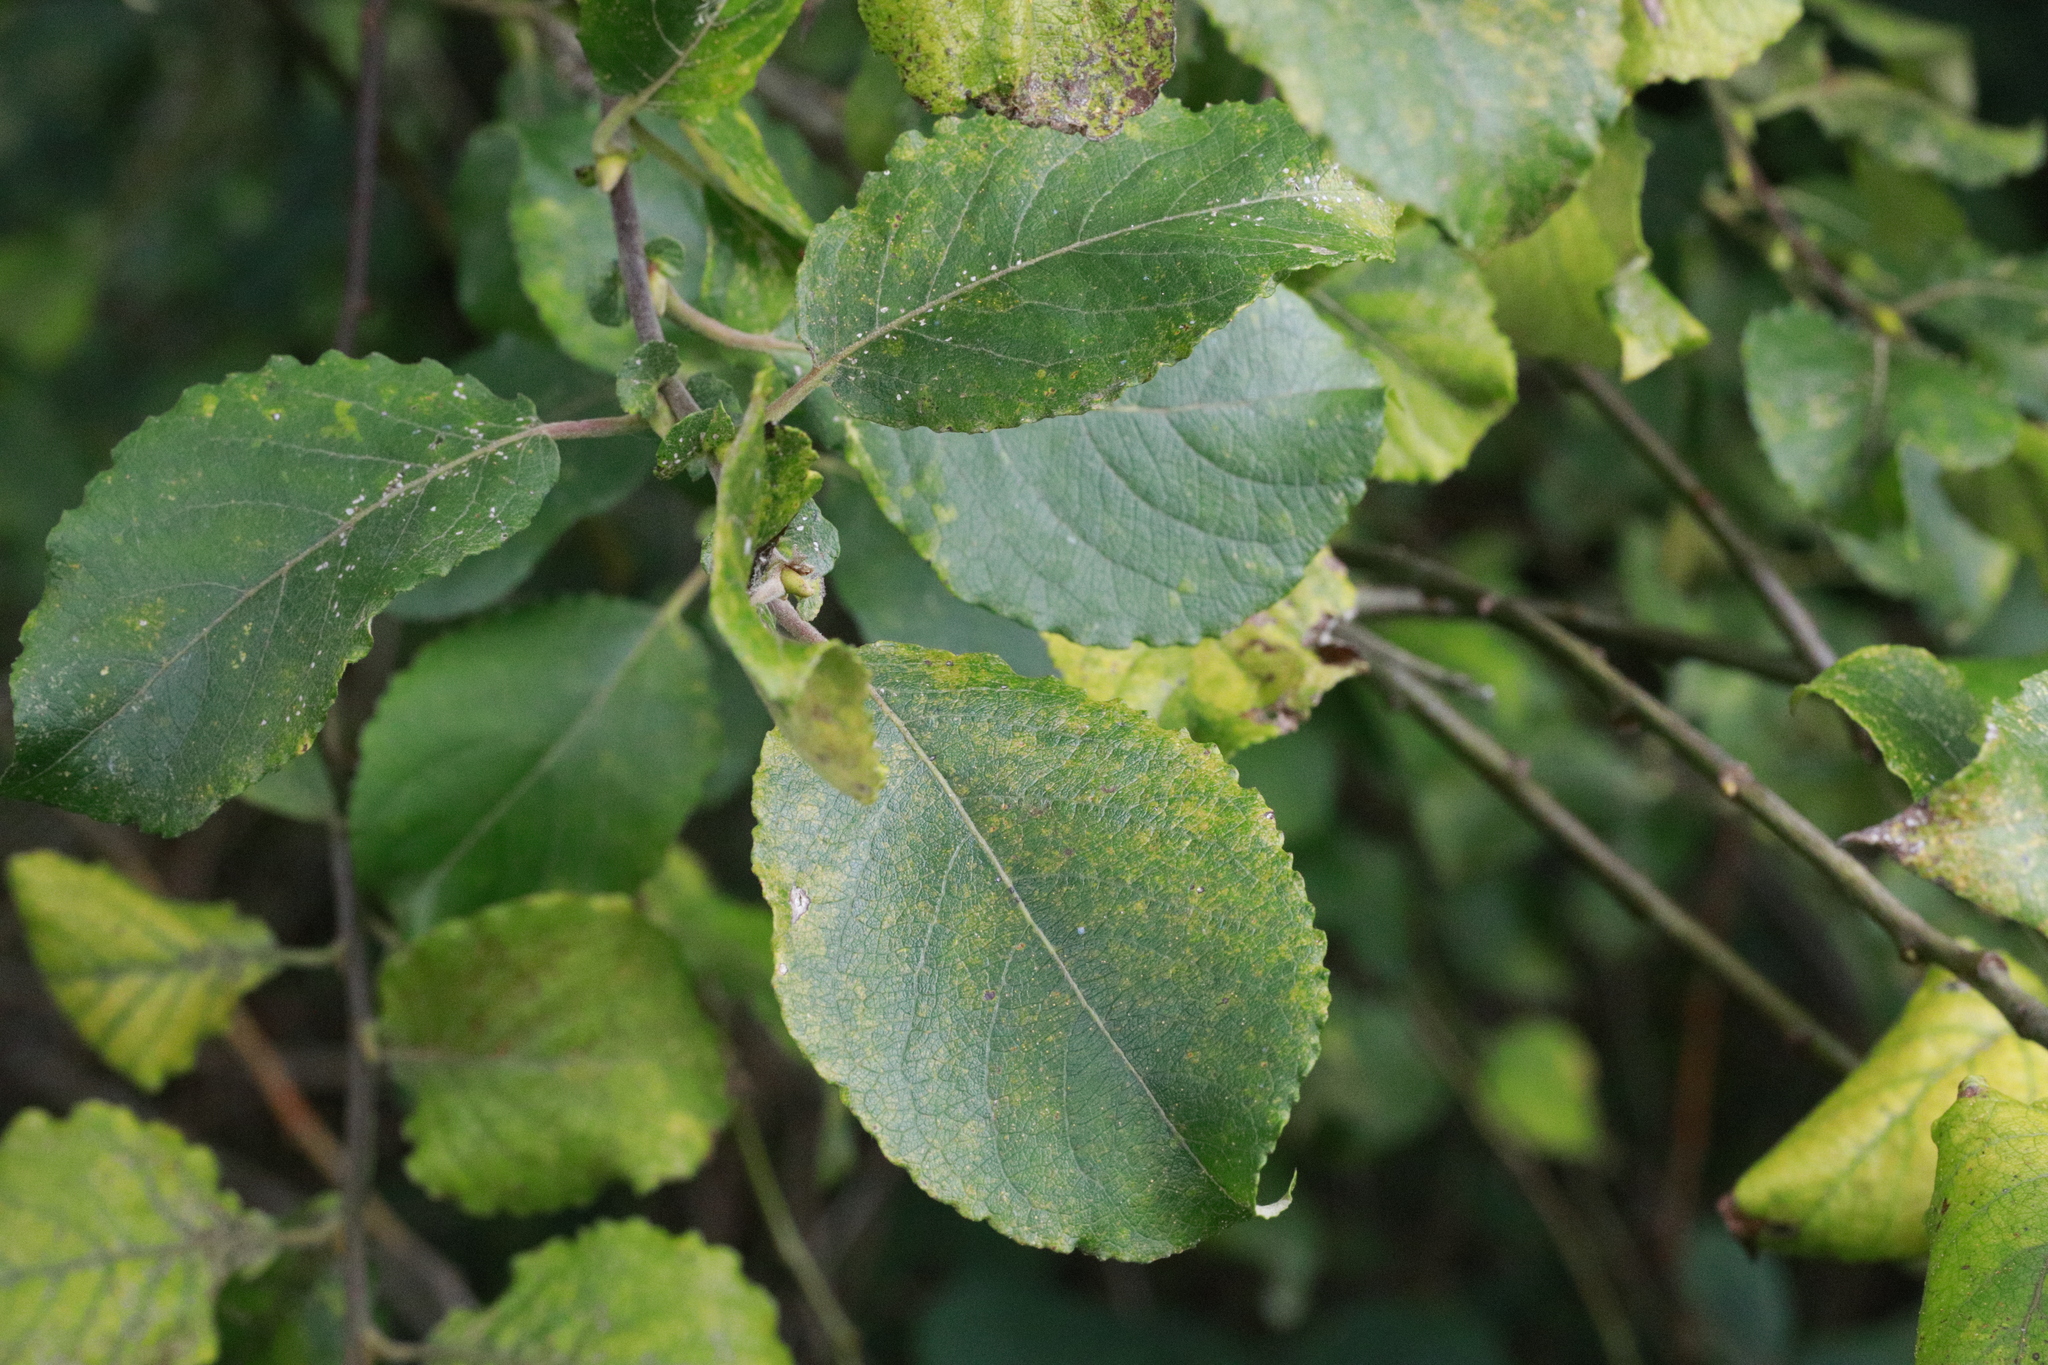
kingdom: Plantae
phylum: Tracheophyta
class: Magnoliopsida
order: Malpighiales
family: Salicaceae
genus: Salix
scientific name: Salix caprea
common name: Goat willow
